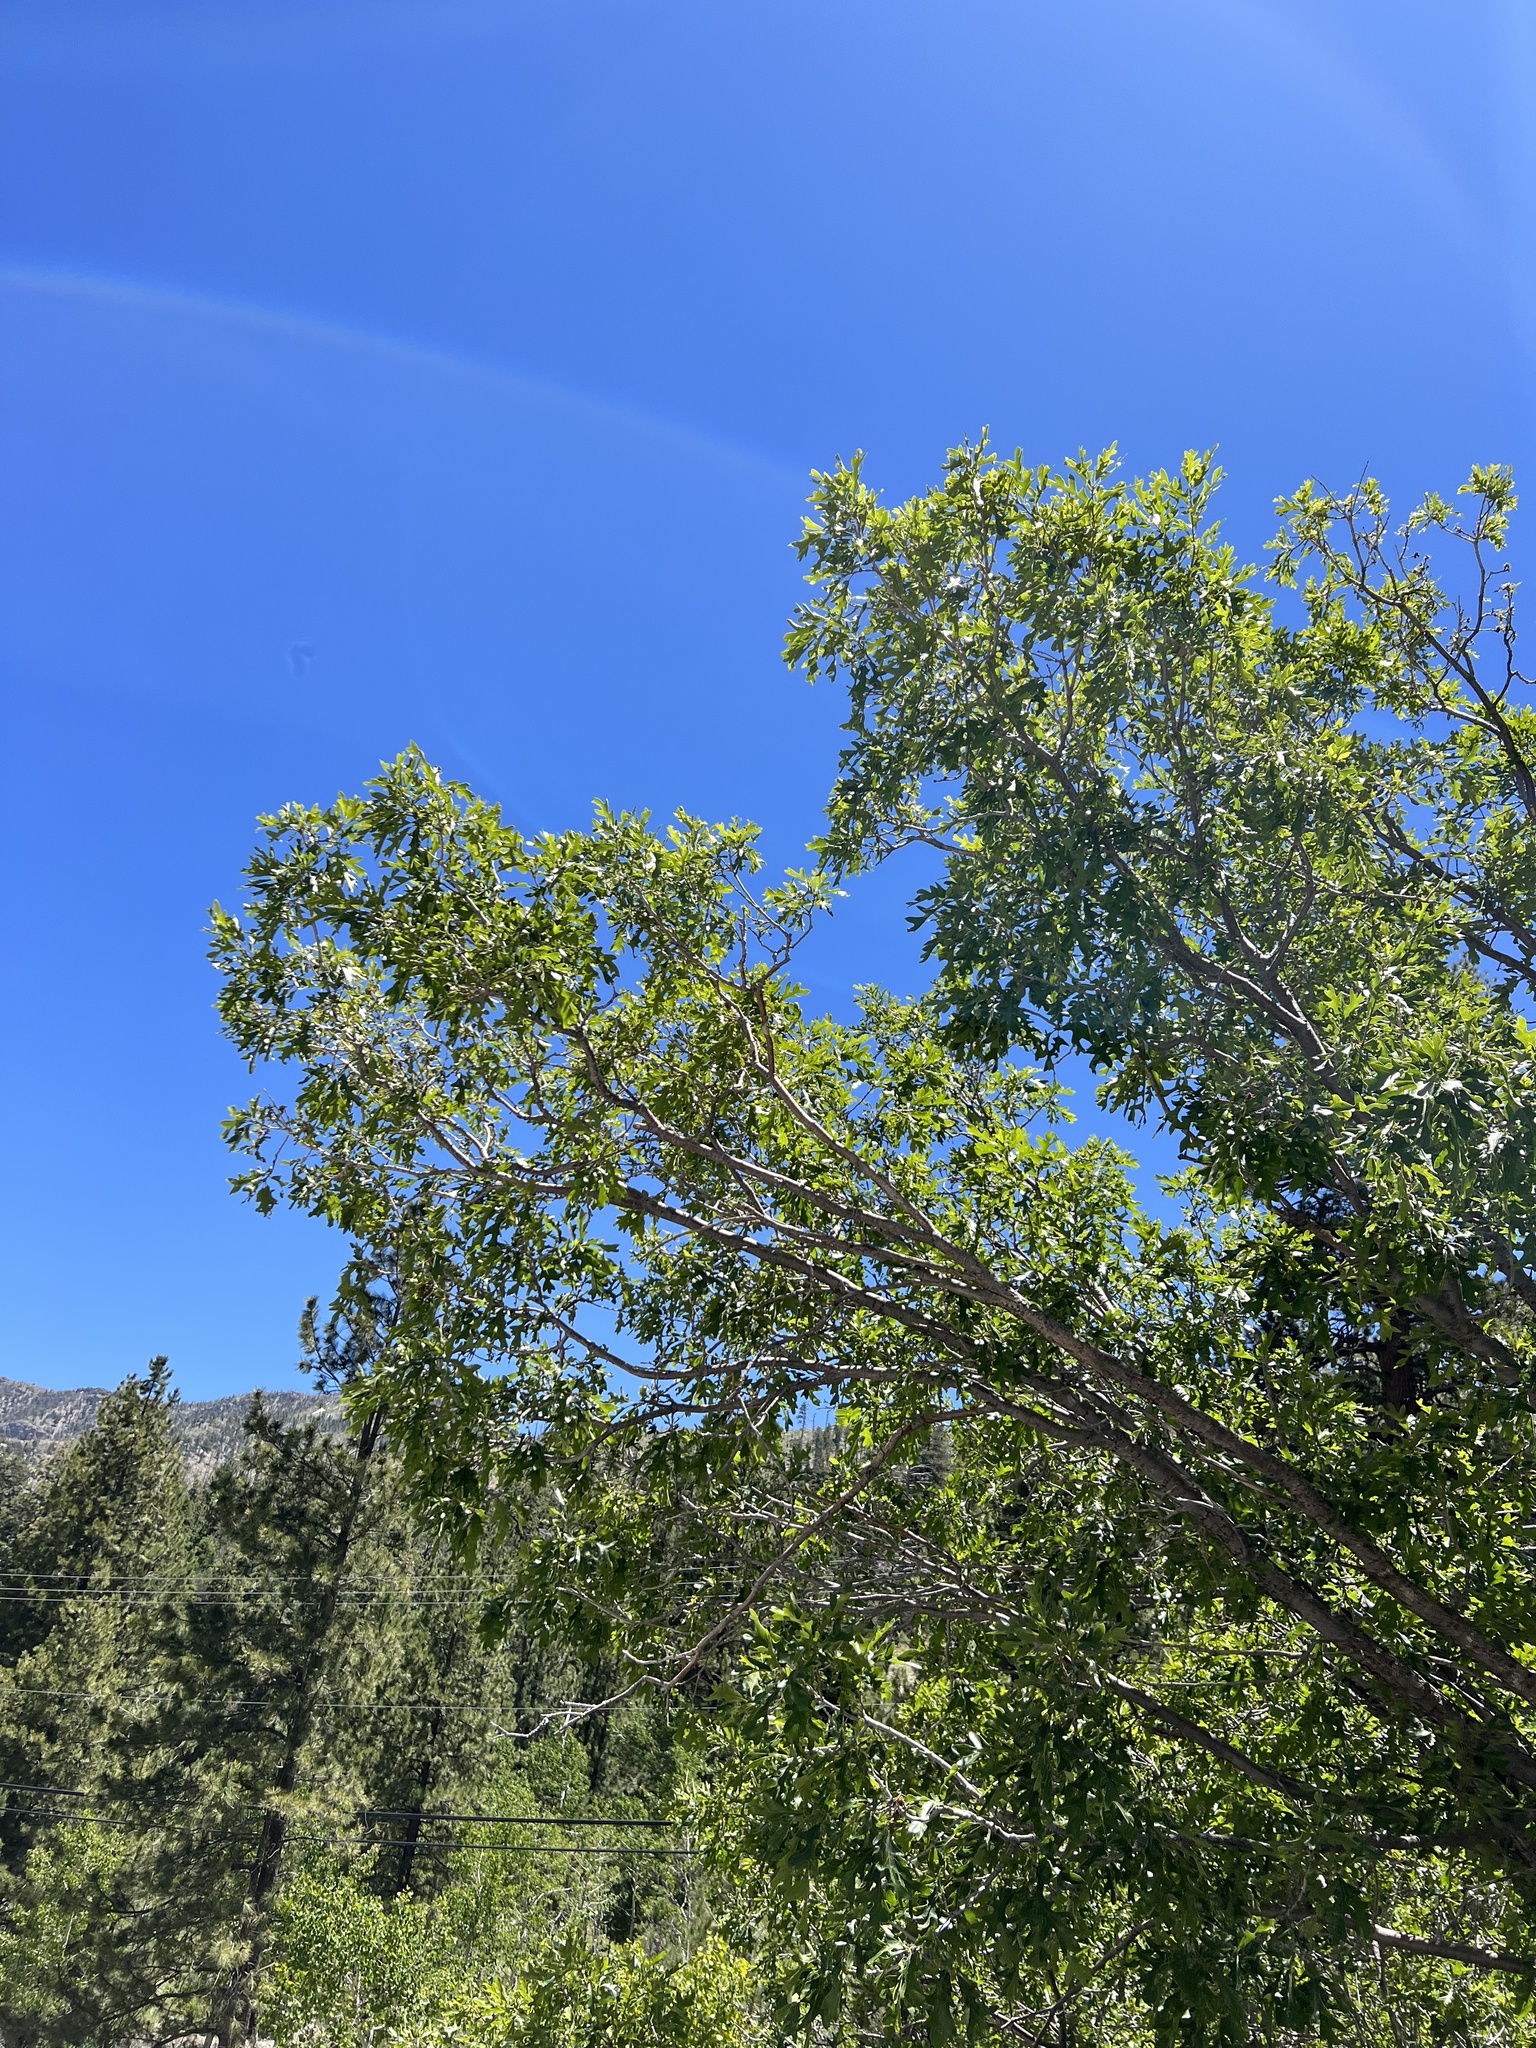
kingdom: Plantae
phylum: Tracheophyta
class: Magnoliopsida
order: Fagales
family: Fagaceae
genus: Quercus
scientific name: Quercus gambelii
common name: Gambel oak
